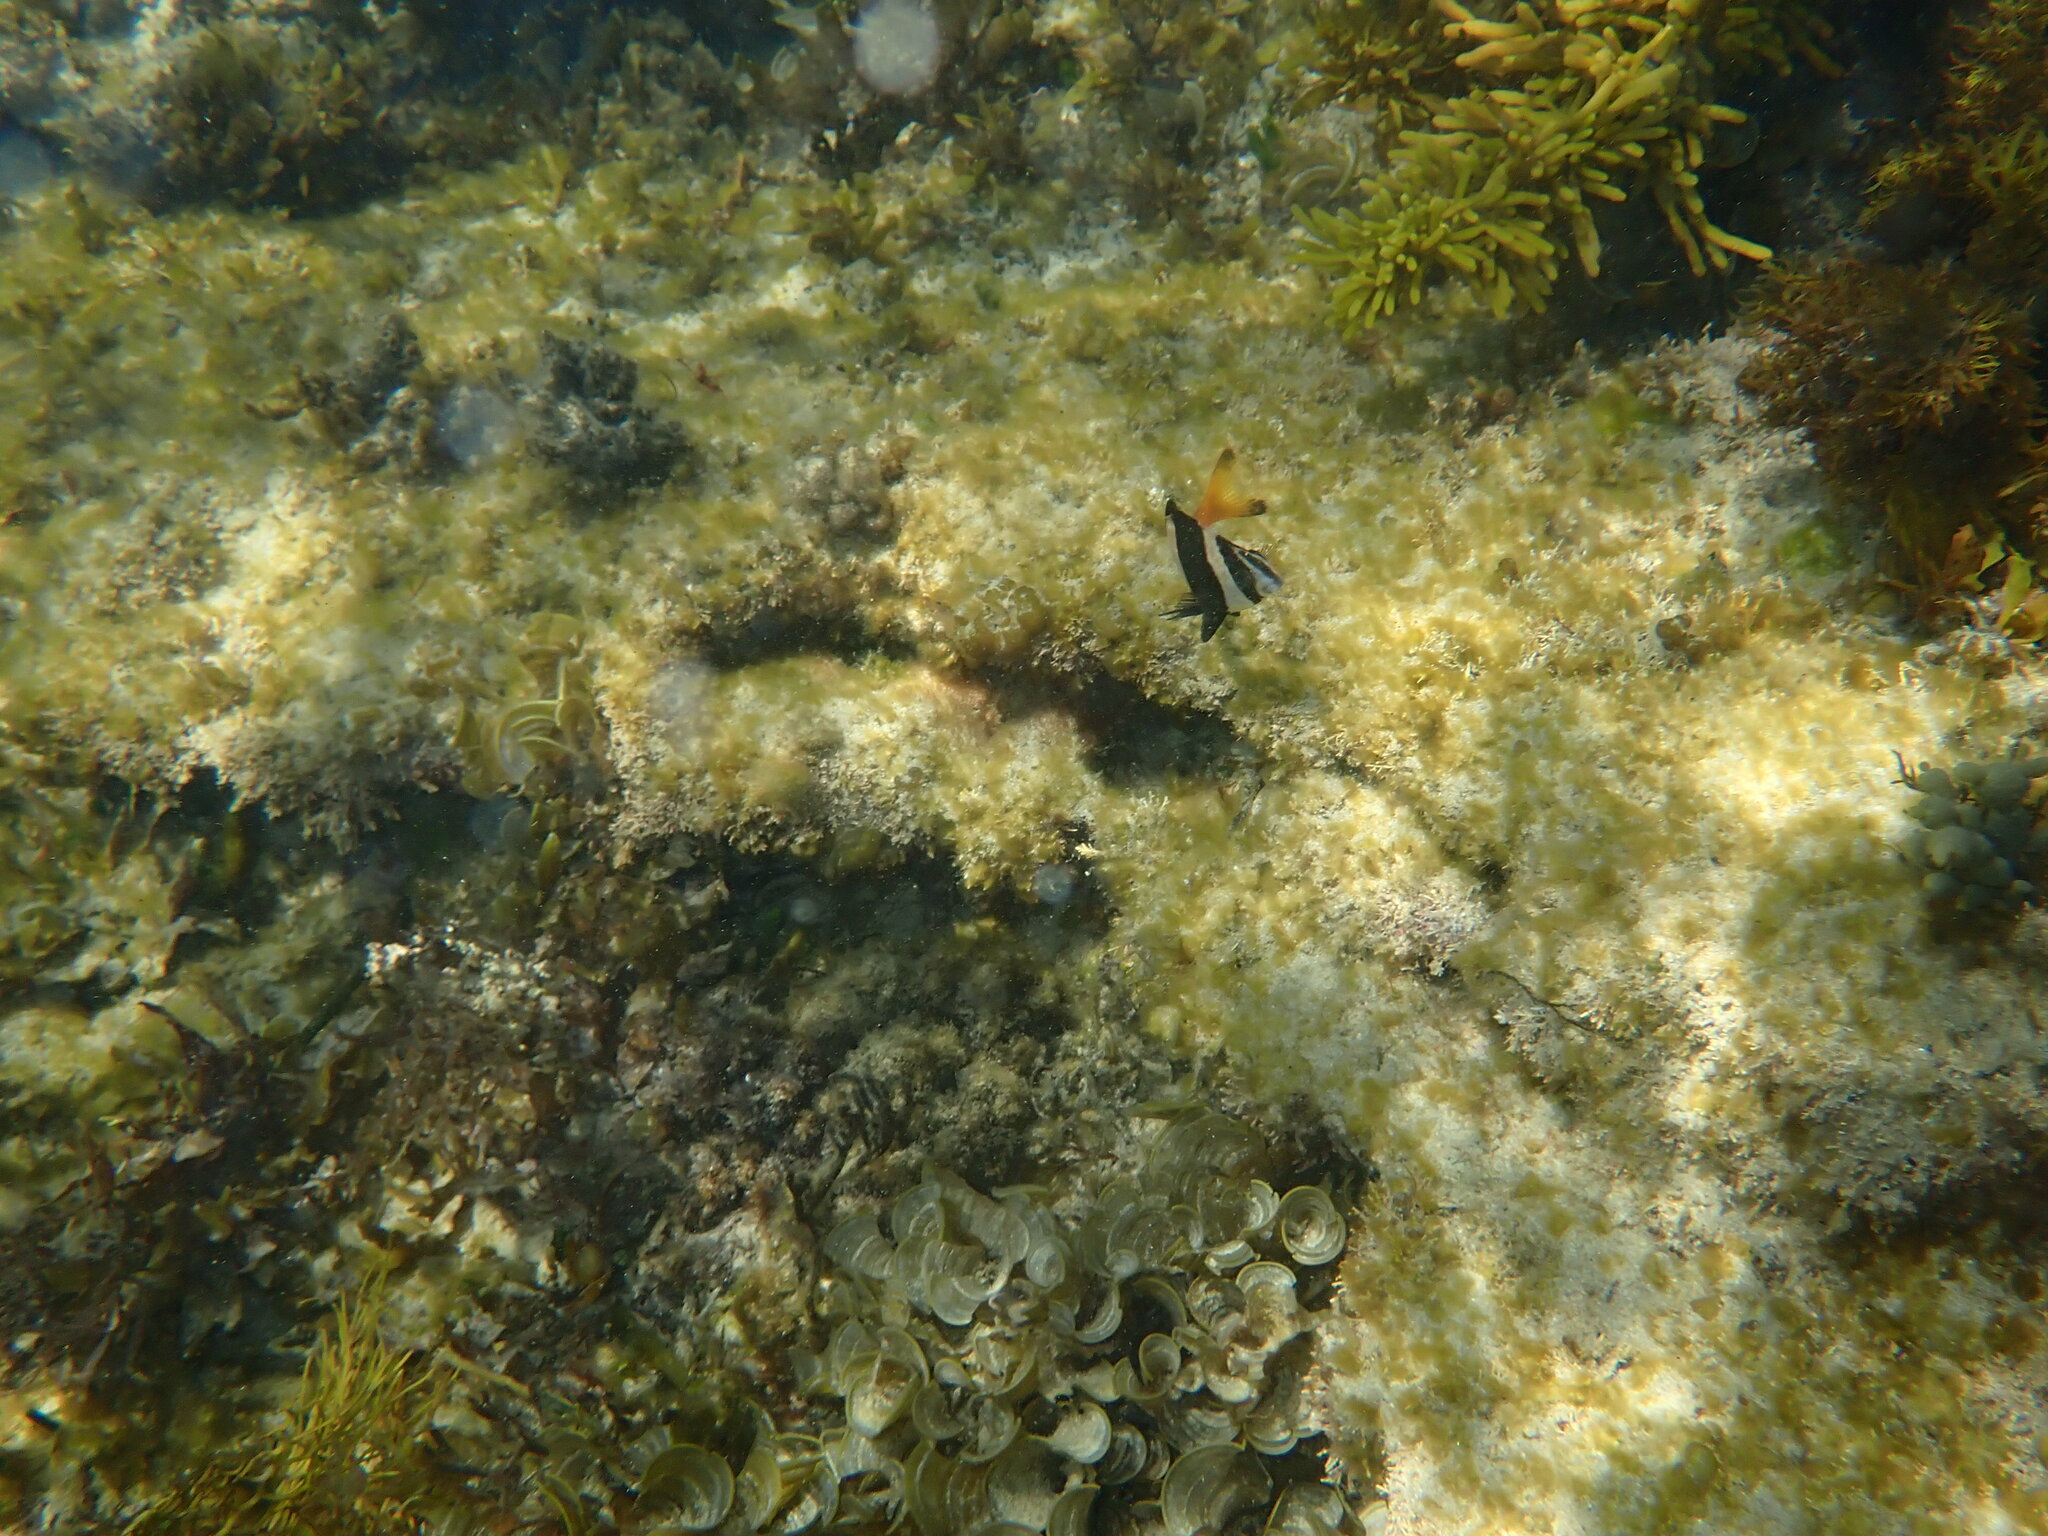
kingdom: Animalia
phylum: Chordata
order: Perciformes
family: Latridae
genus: Pseudogoniistius
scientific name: Pseudogoniistius nigripes
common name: Black-striped morwong
